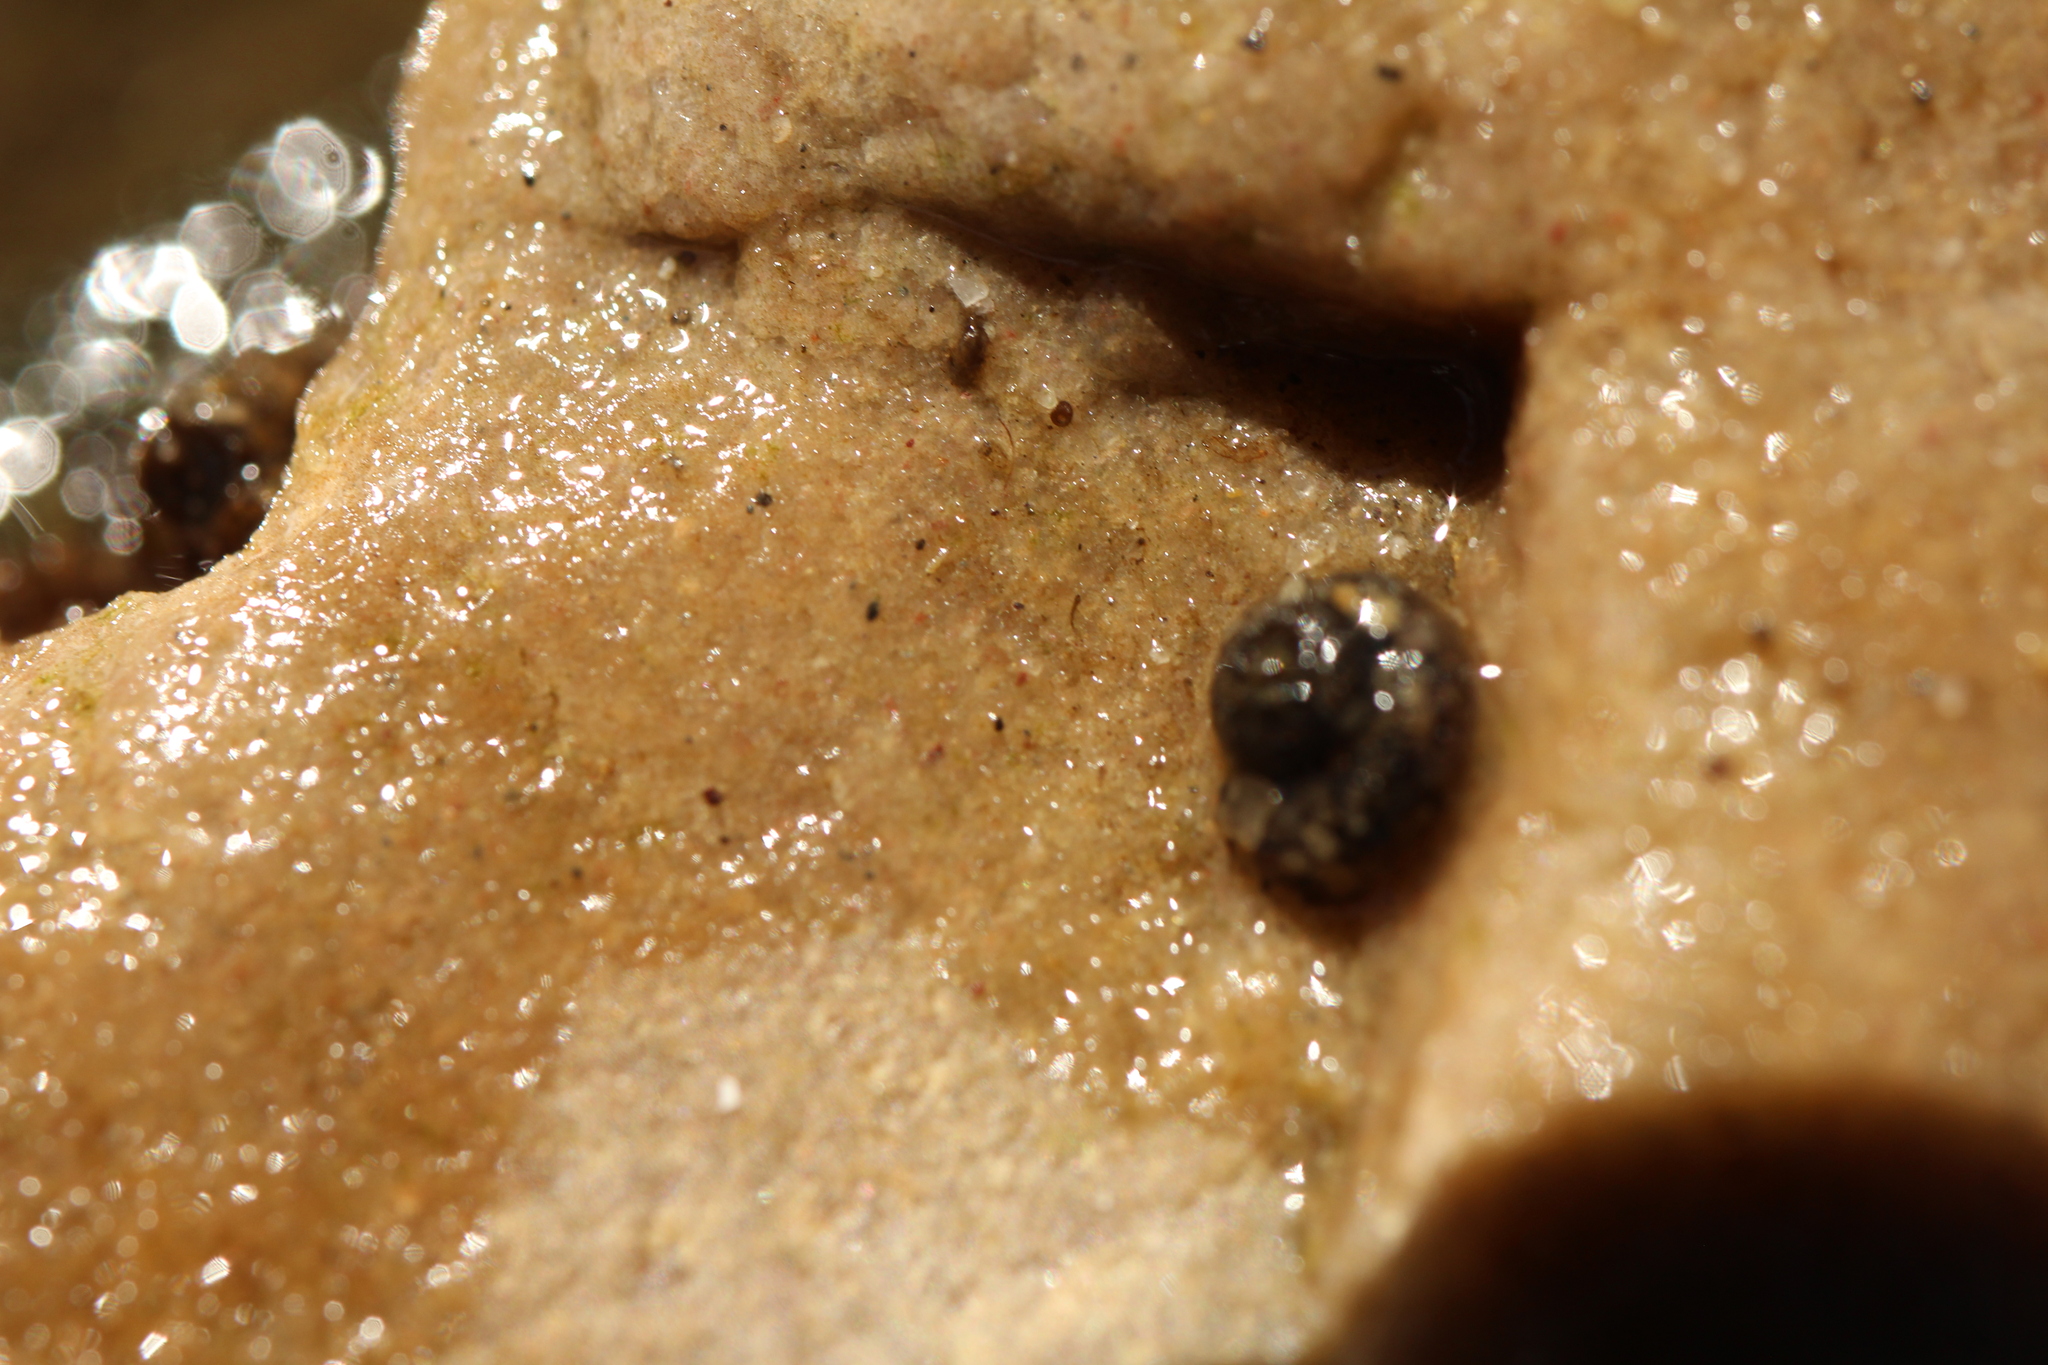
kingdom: Animalia
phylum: Arthropoda
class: Insecta
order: Trichoptera
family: Helicopsychidae
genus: Helicopsyche
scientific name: Helicopsyche borealis
